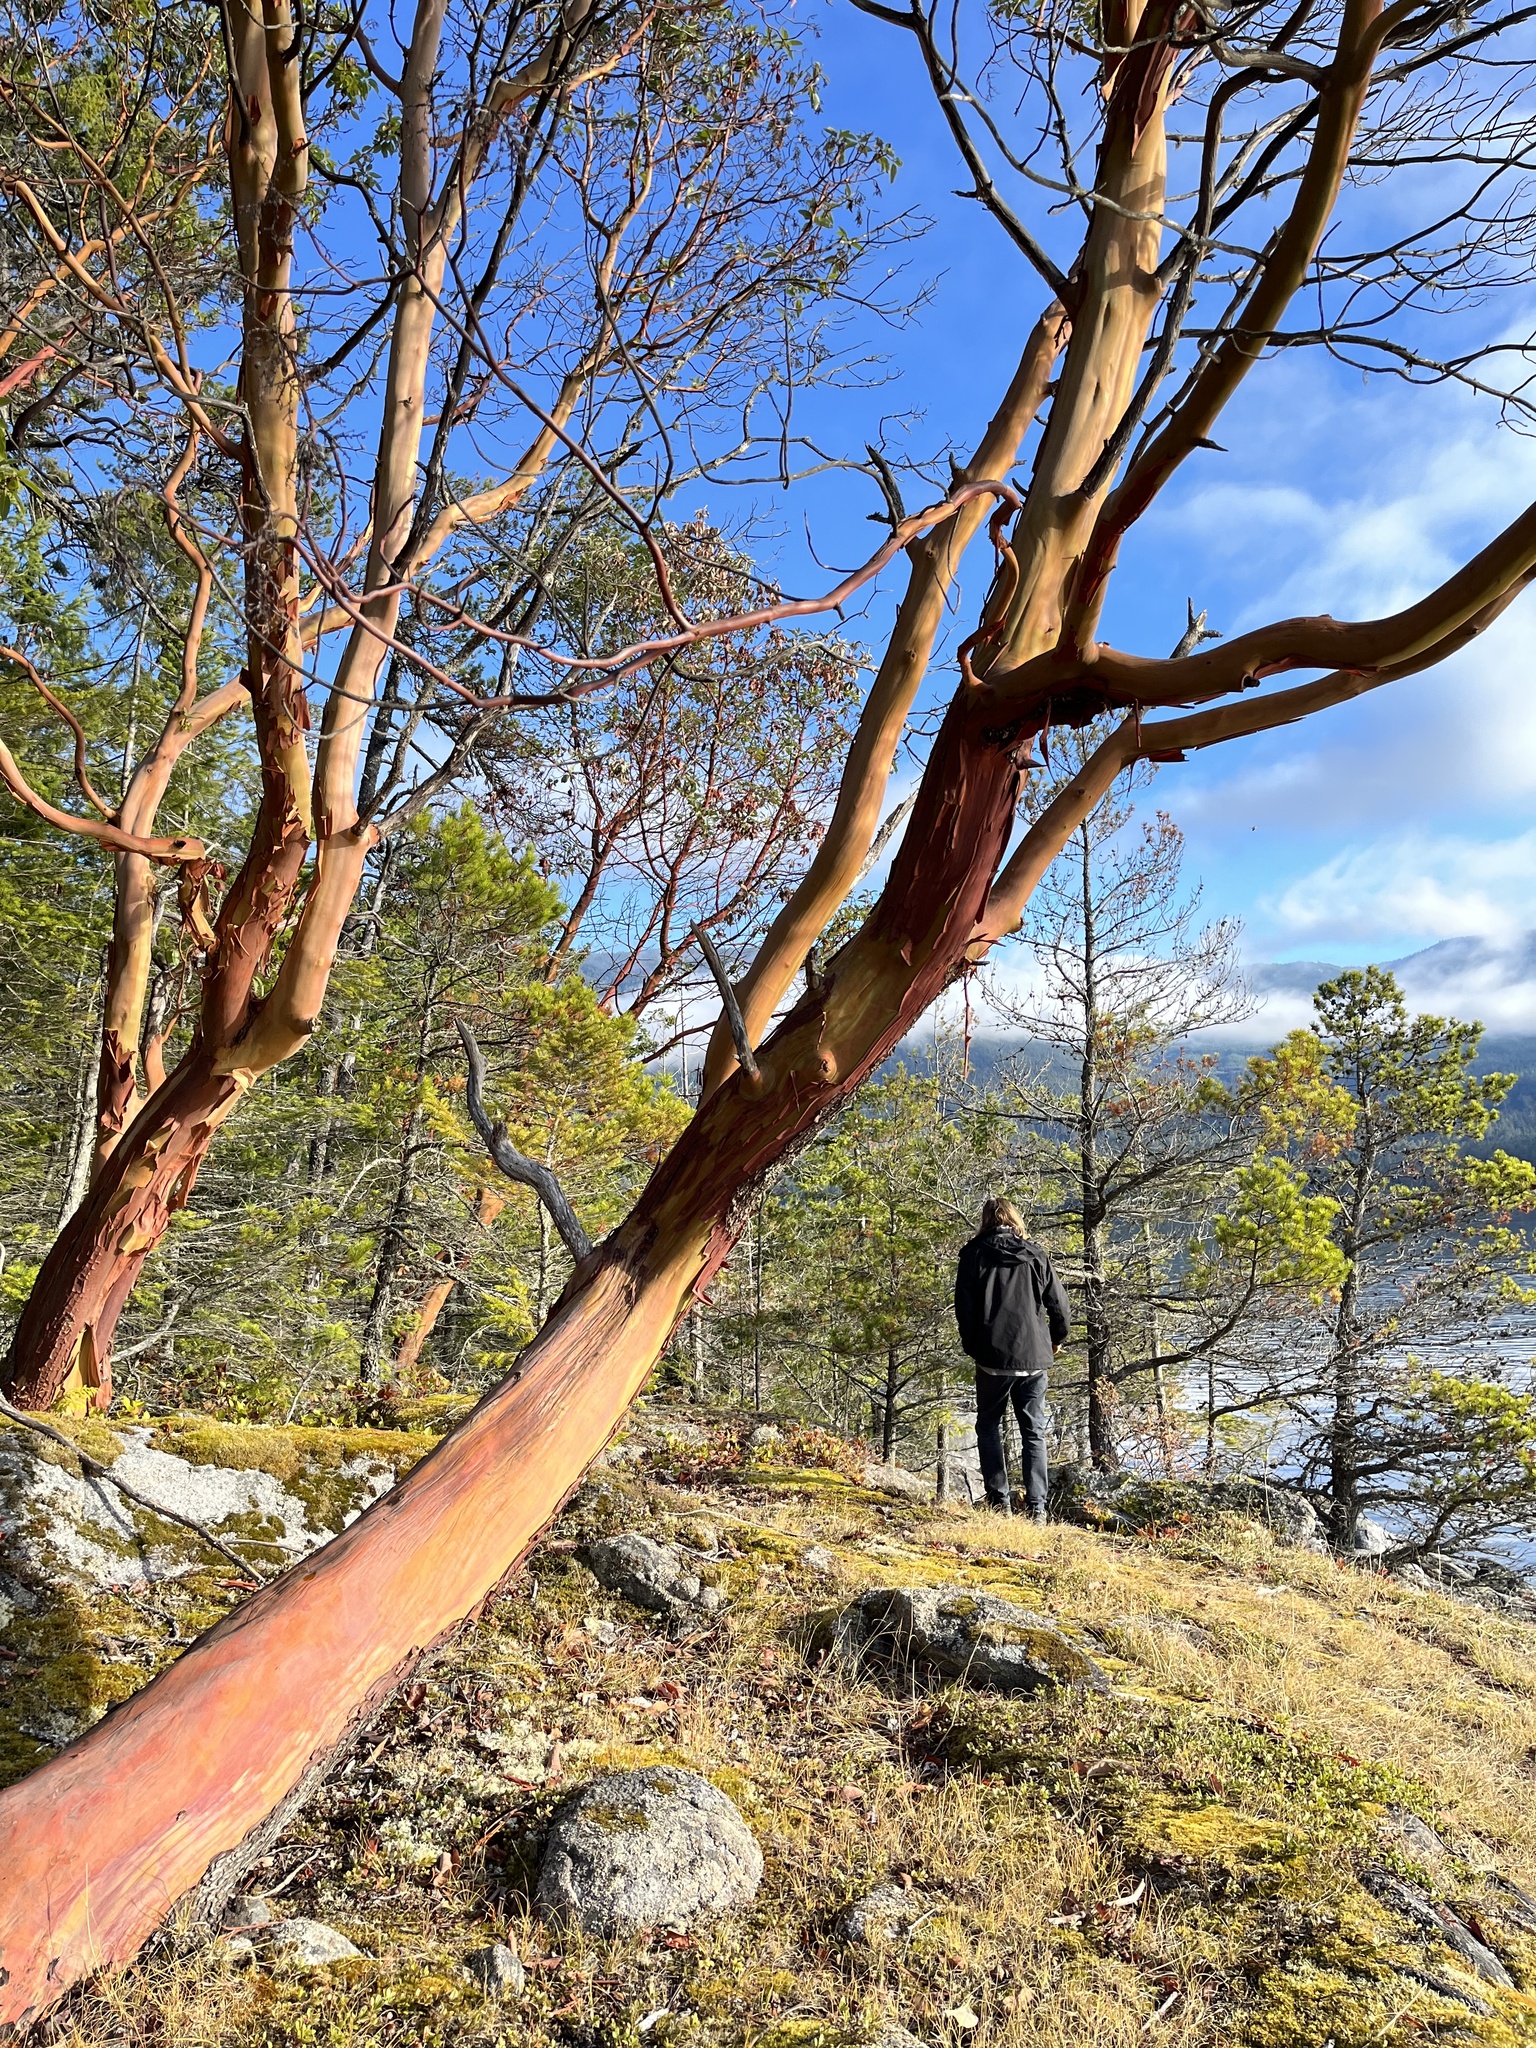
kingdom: Plantae
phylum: Tracheophyta
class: Magnoliopsida
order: Ericales
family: Ericaceae
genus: Arbutus
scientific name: Arbutus menziesii
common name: Pacific madrone
